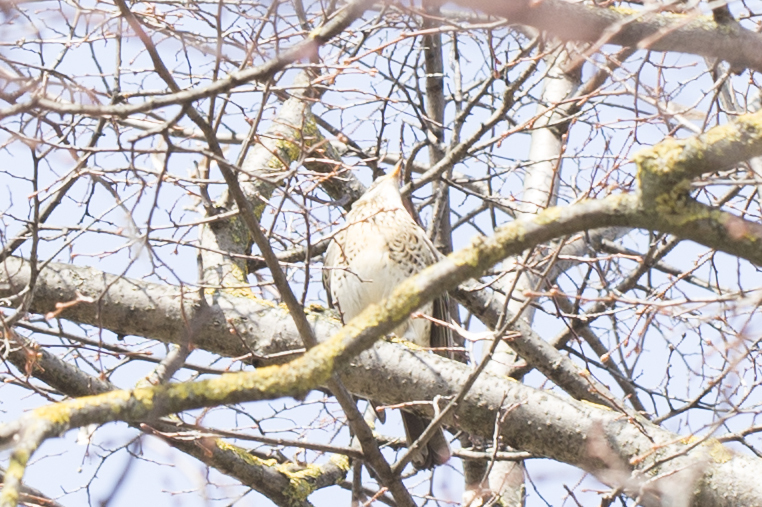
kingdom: Animalia
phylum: Chordata
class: Aves
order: Passeriformes
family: Turdidae
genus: Turdus
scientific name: Turdus pilaris
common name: Fieldfare
